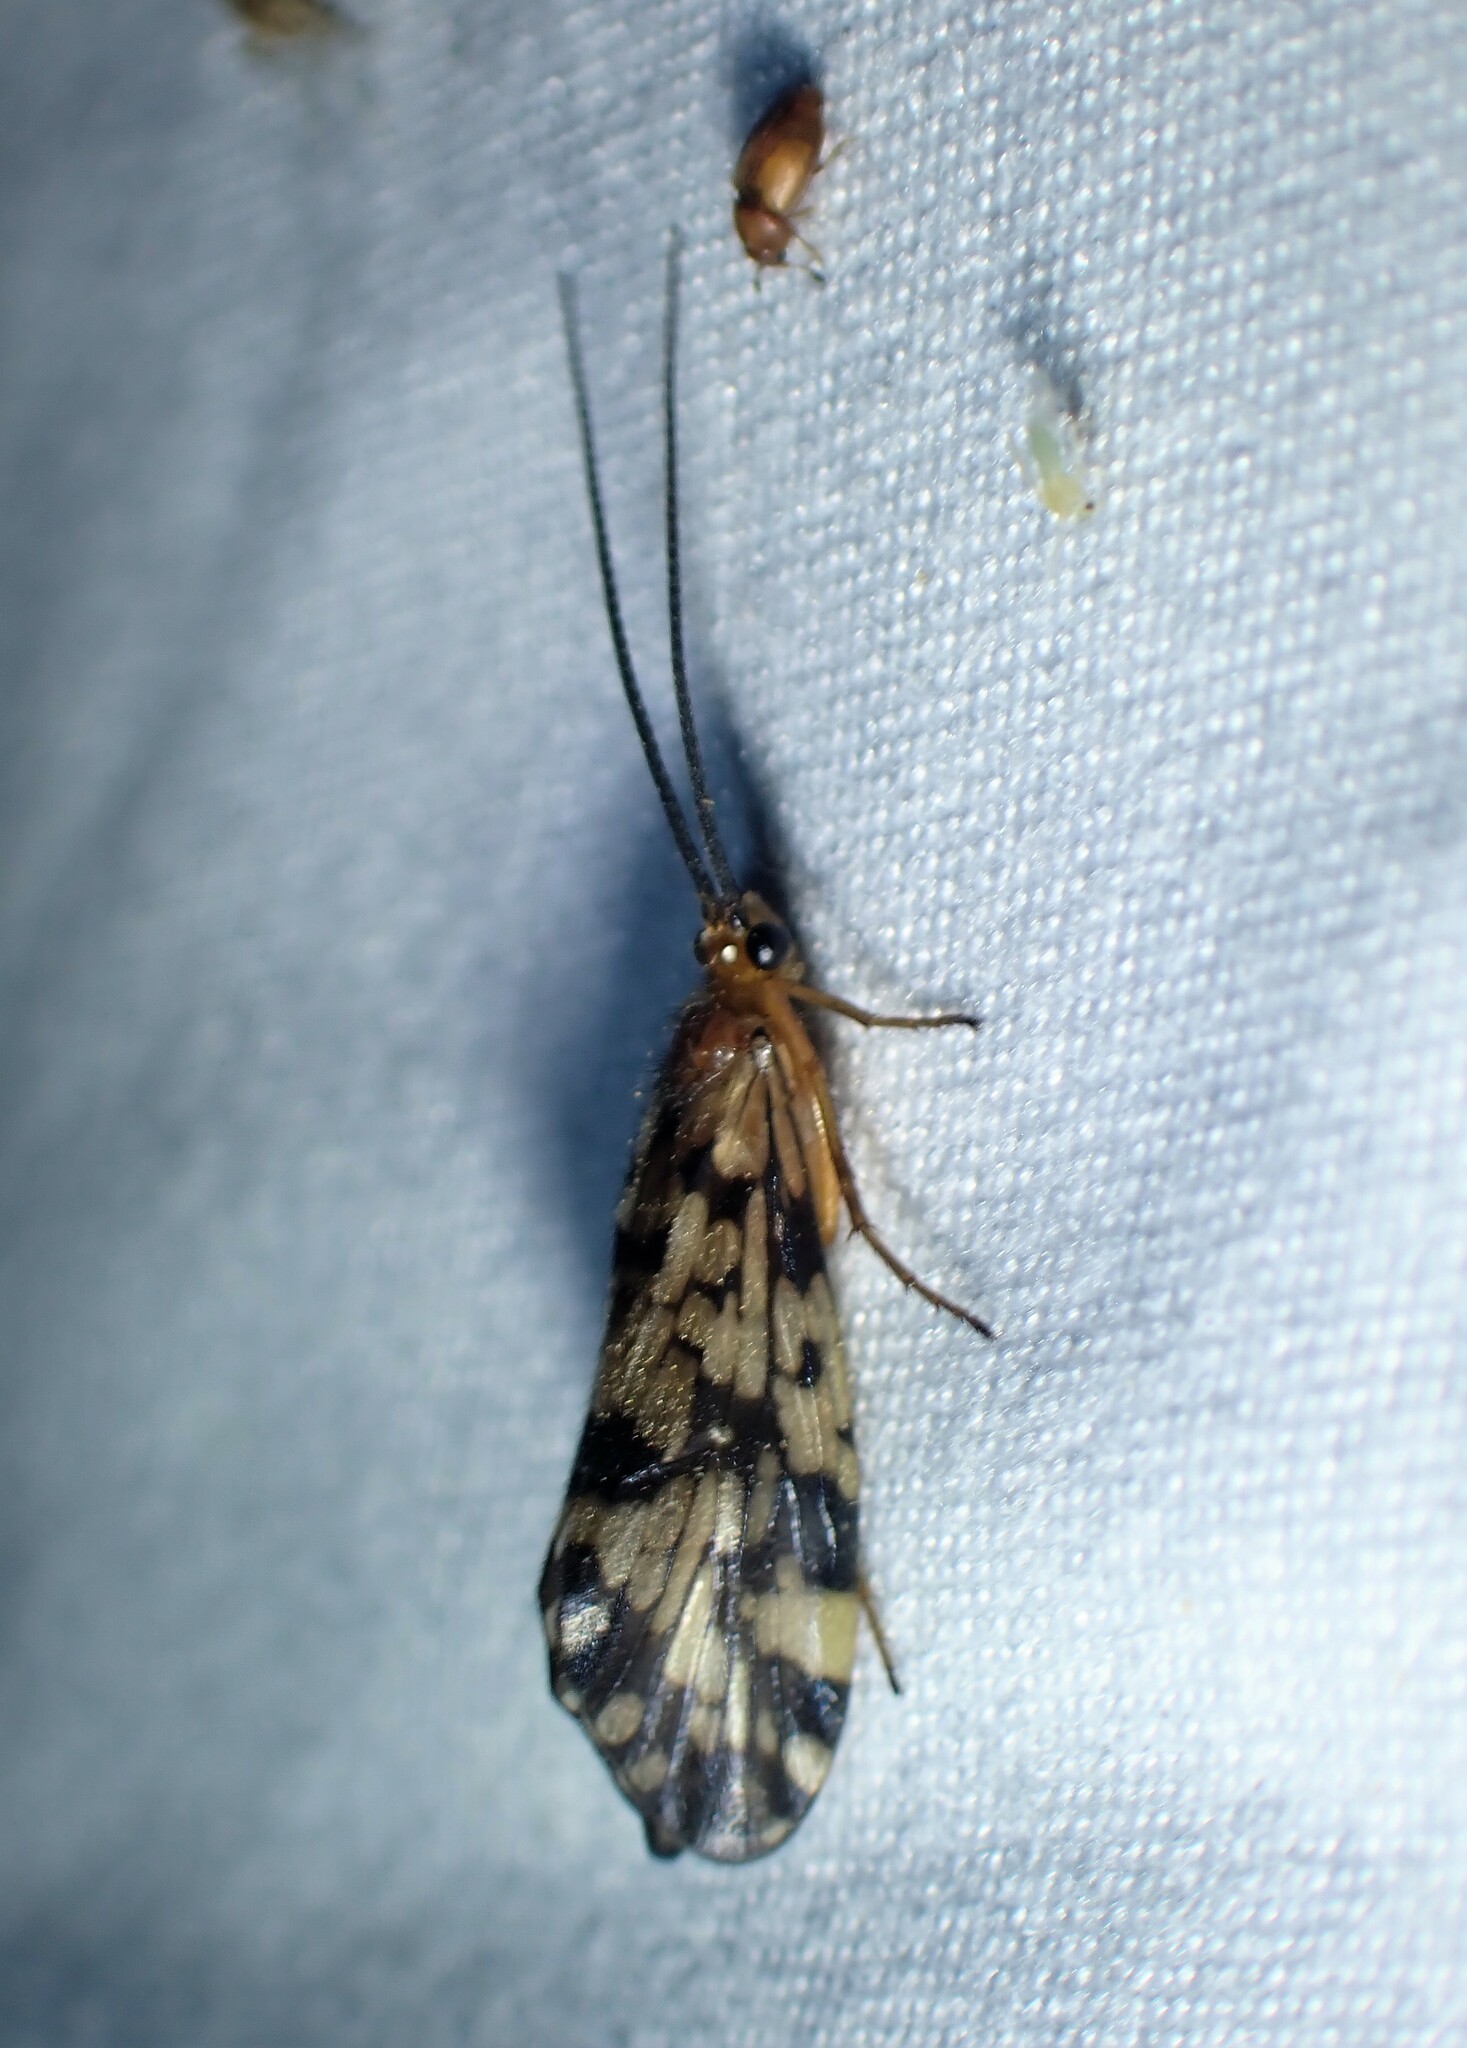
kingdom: Animalia
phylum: Arthropoda
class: Insecta
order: Trichoptera
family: Phryganeidae
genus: Banksiola
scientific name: Banksiola dossuaria
